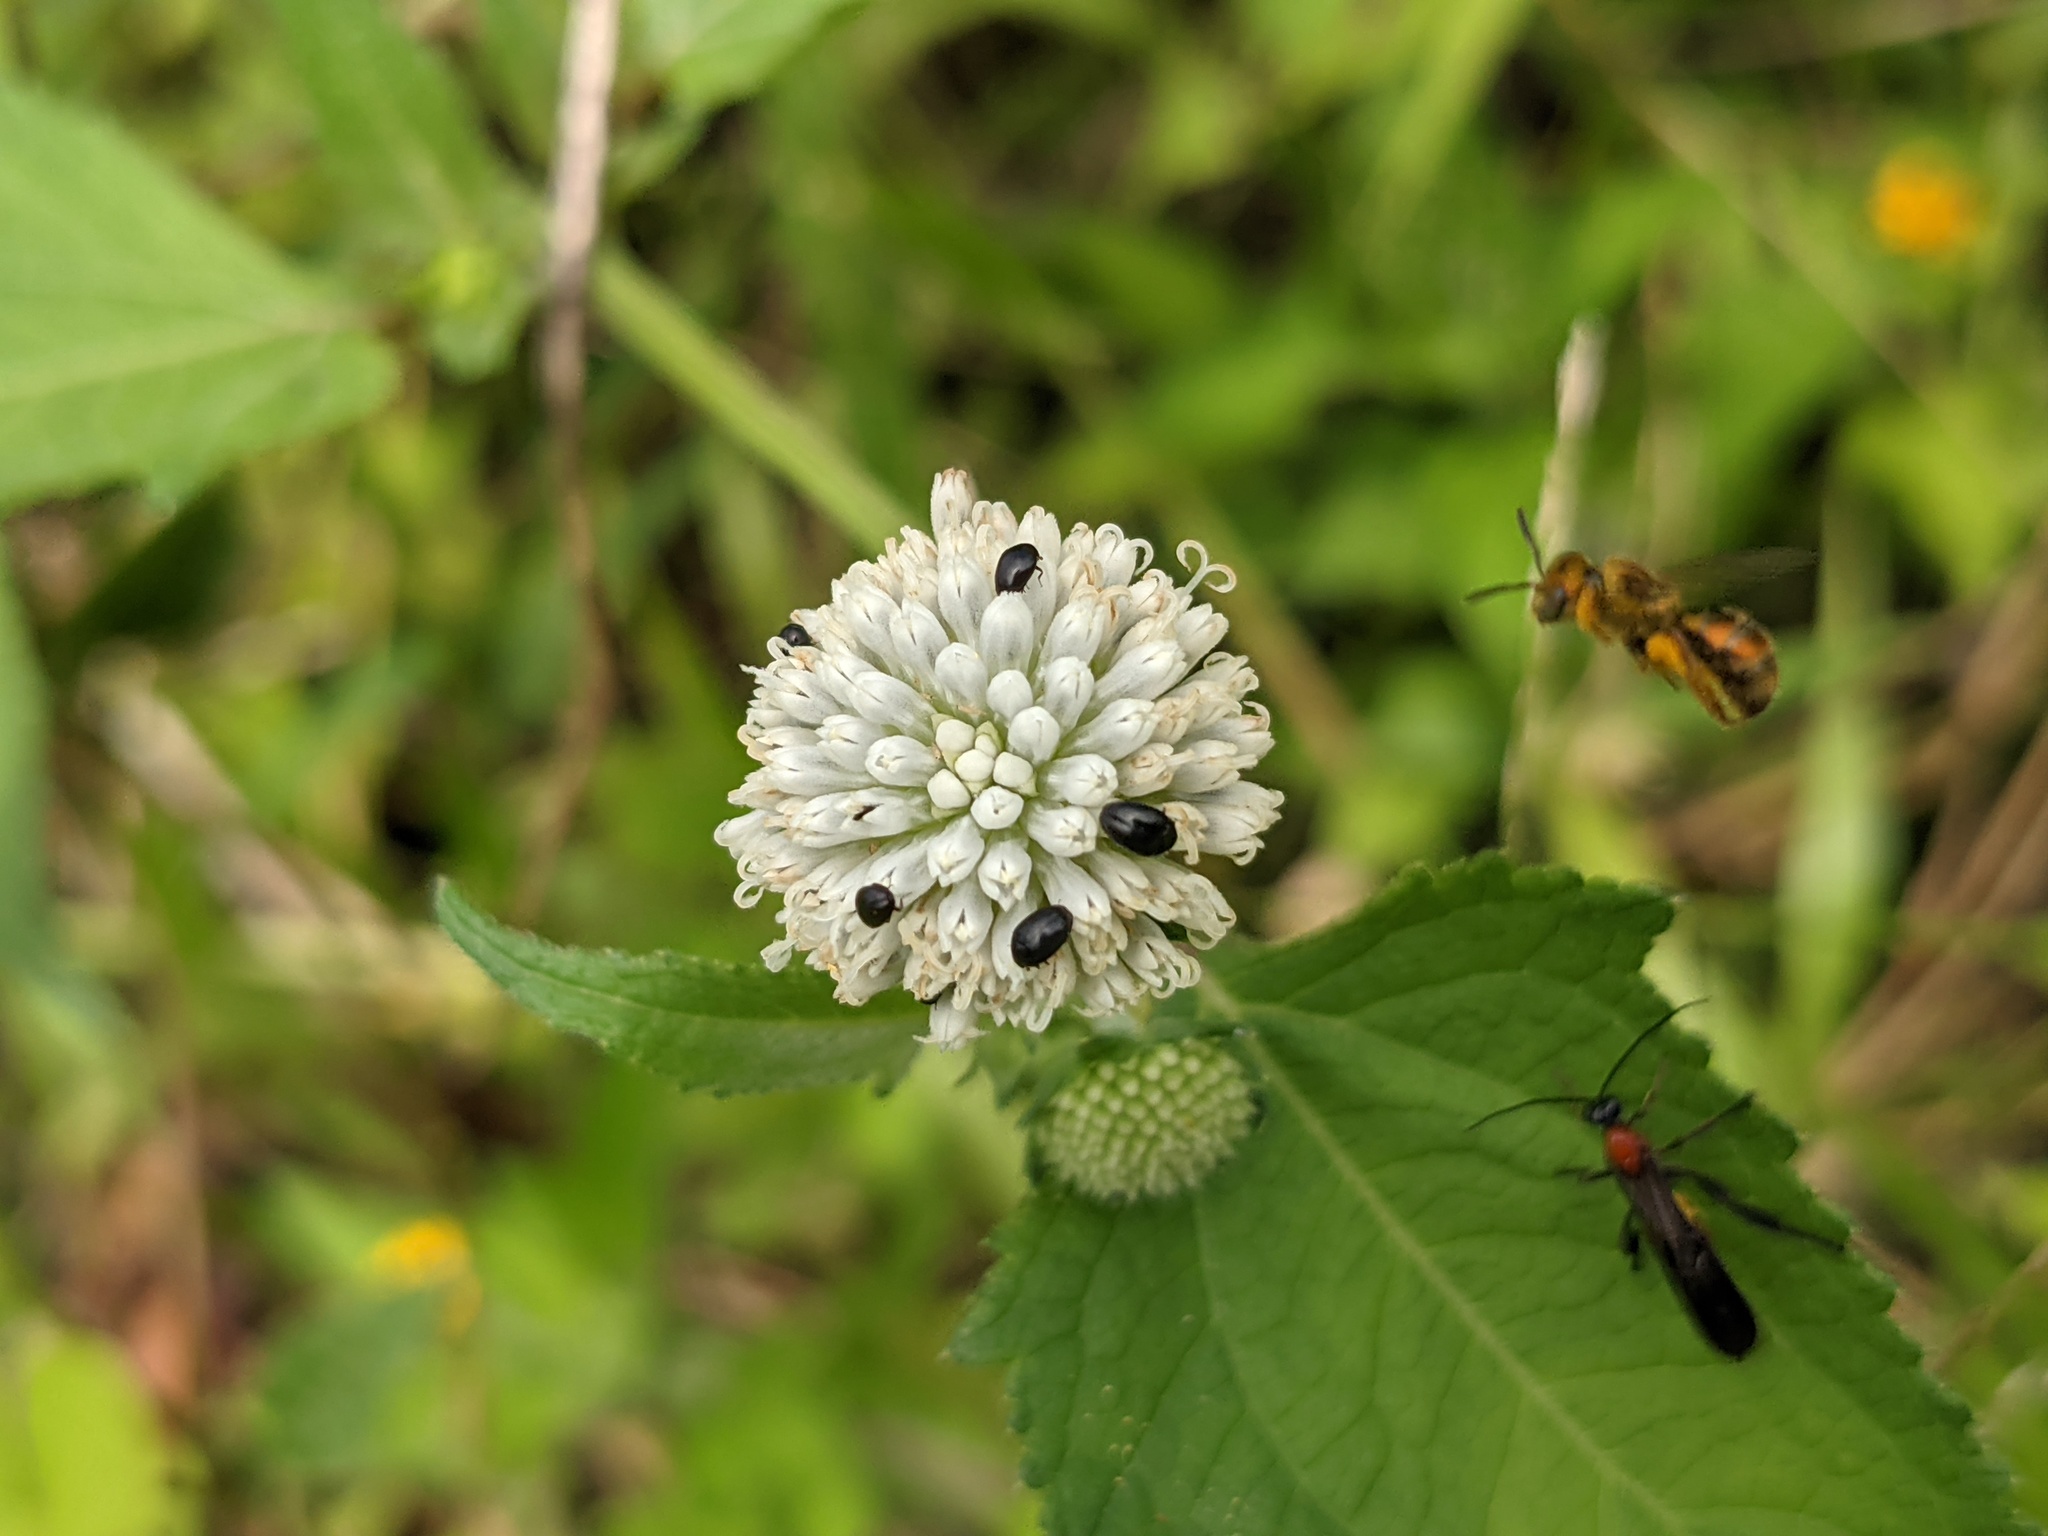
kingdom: Plantae
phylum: Tracheophyta
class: Magnoliopsida
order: Asterales
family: Asteraceae
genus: Melanthera
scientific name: Melanthera nivea
